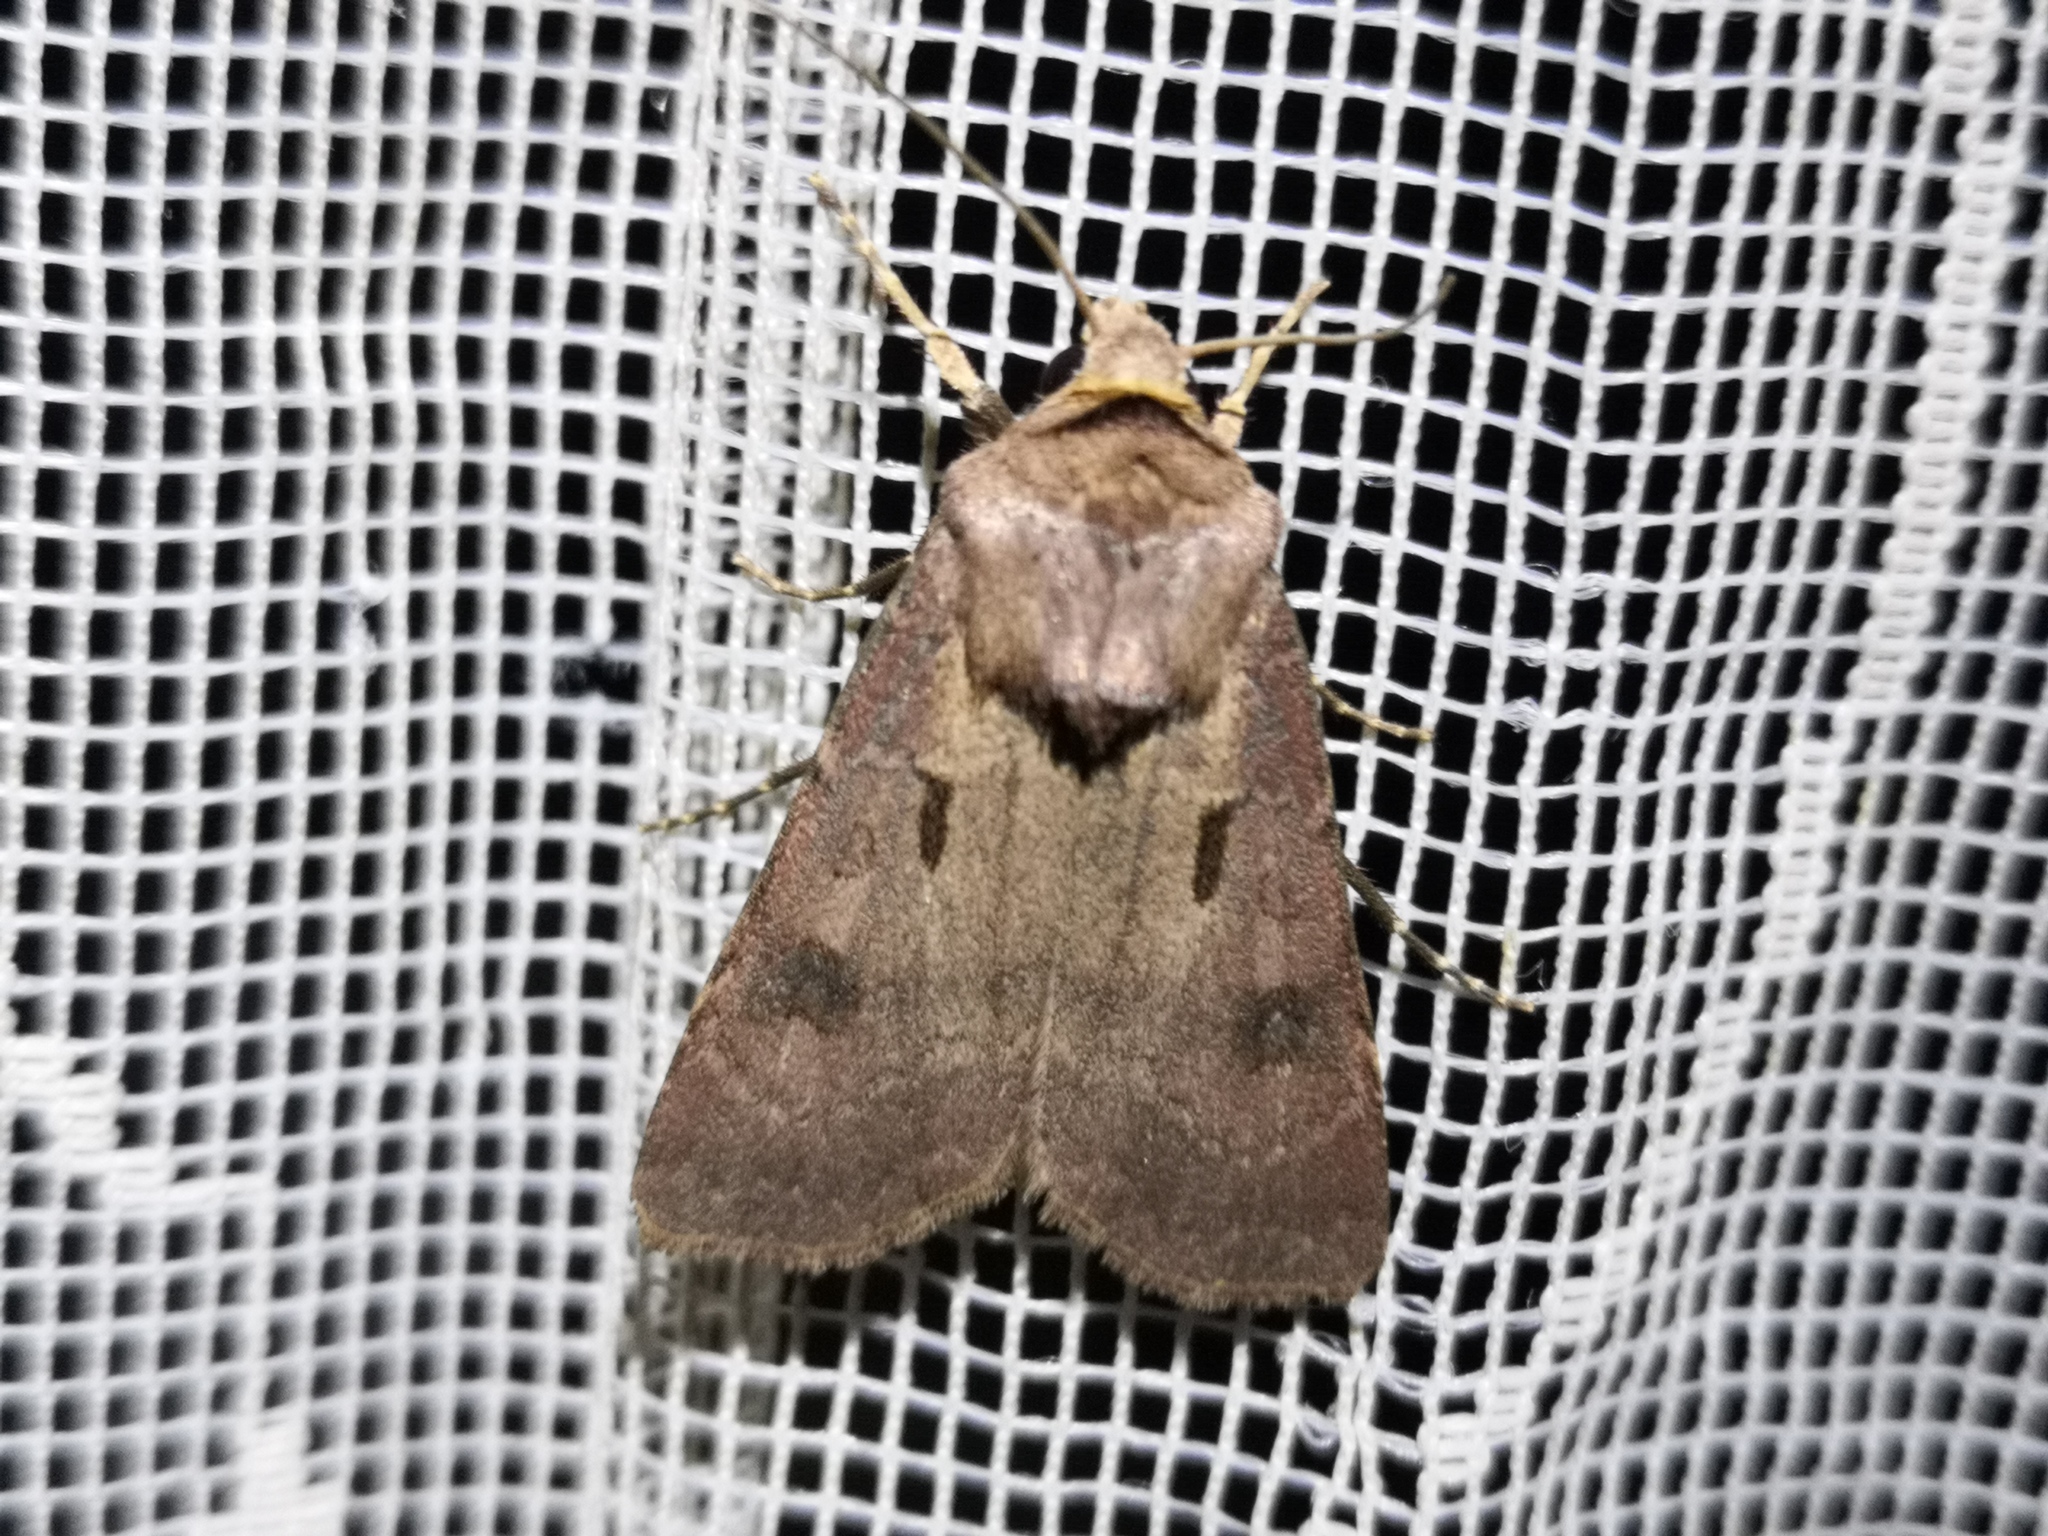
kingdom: Animalia
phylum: Arthropoda
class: Insecta
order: Lepidoptera
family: Noctuidae
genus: Agrotis
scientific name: Agrotis exclamationis
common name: Heart and dart
